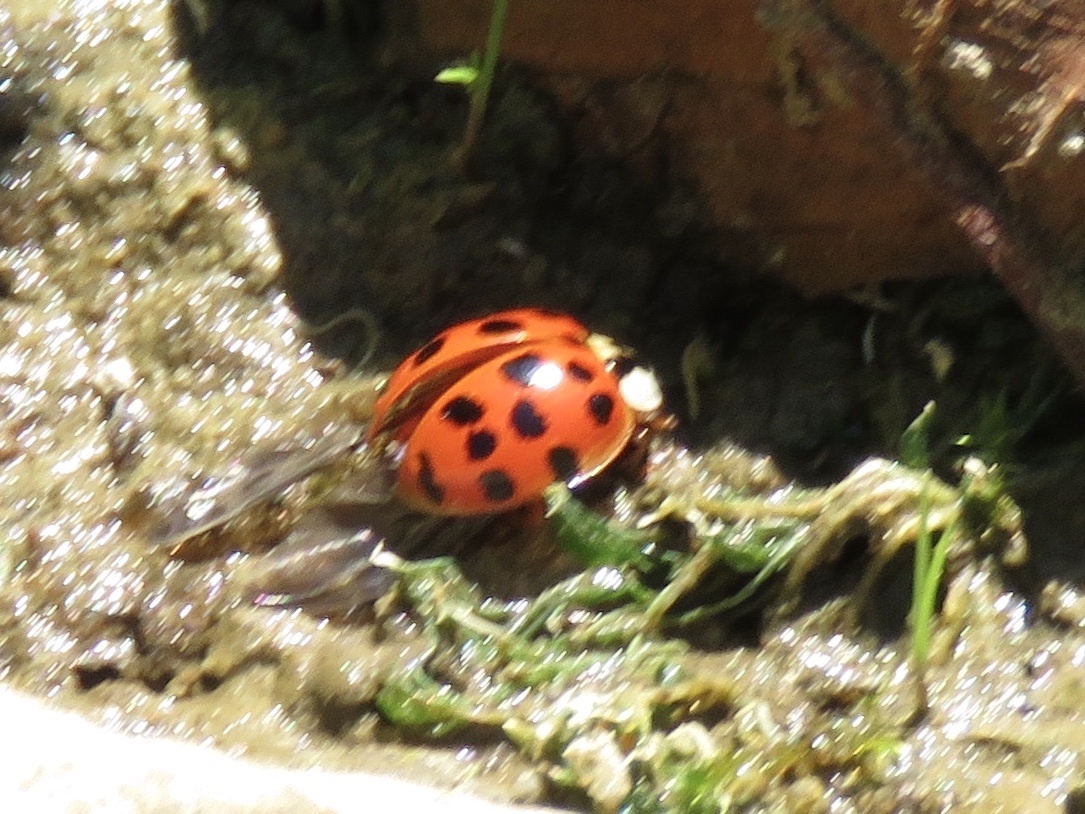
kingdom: Animalia
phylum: Arthropoda
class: Insecta
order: Coleoptera
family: Coccinellidae
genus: Harmonia
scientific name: Harmonia axyridis
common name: Harlequin ladybird
